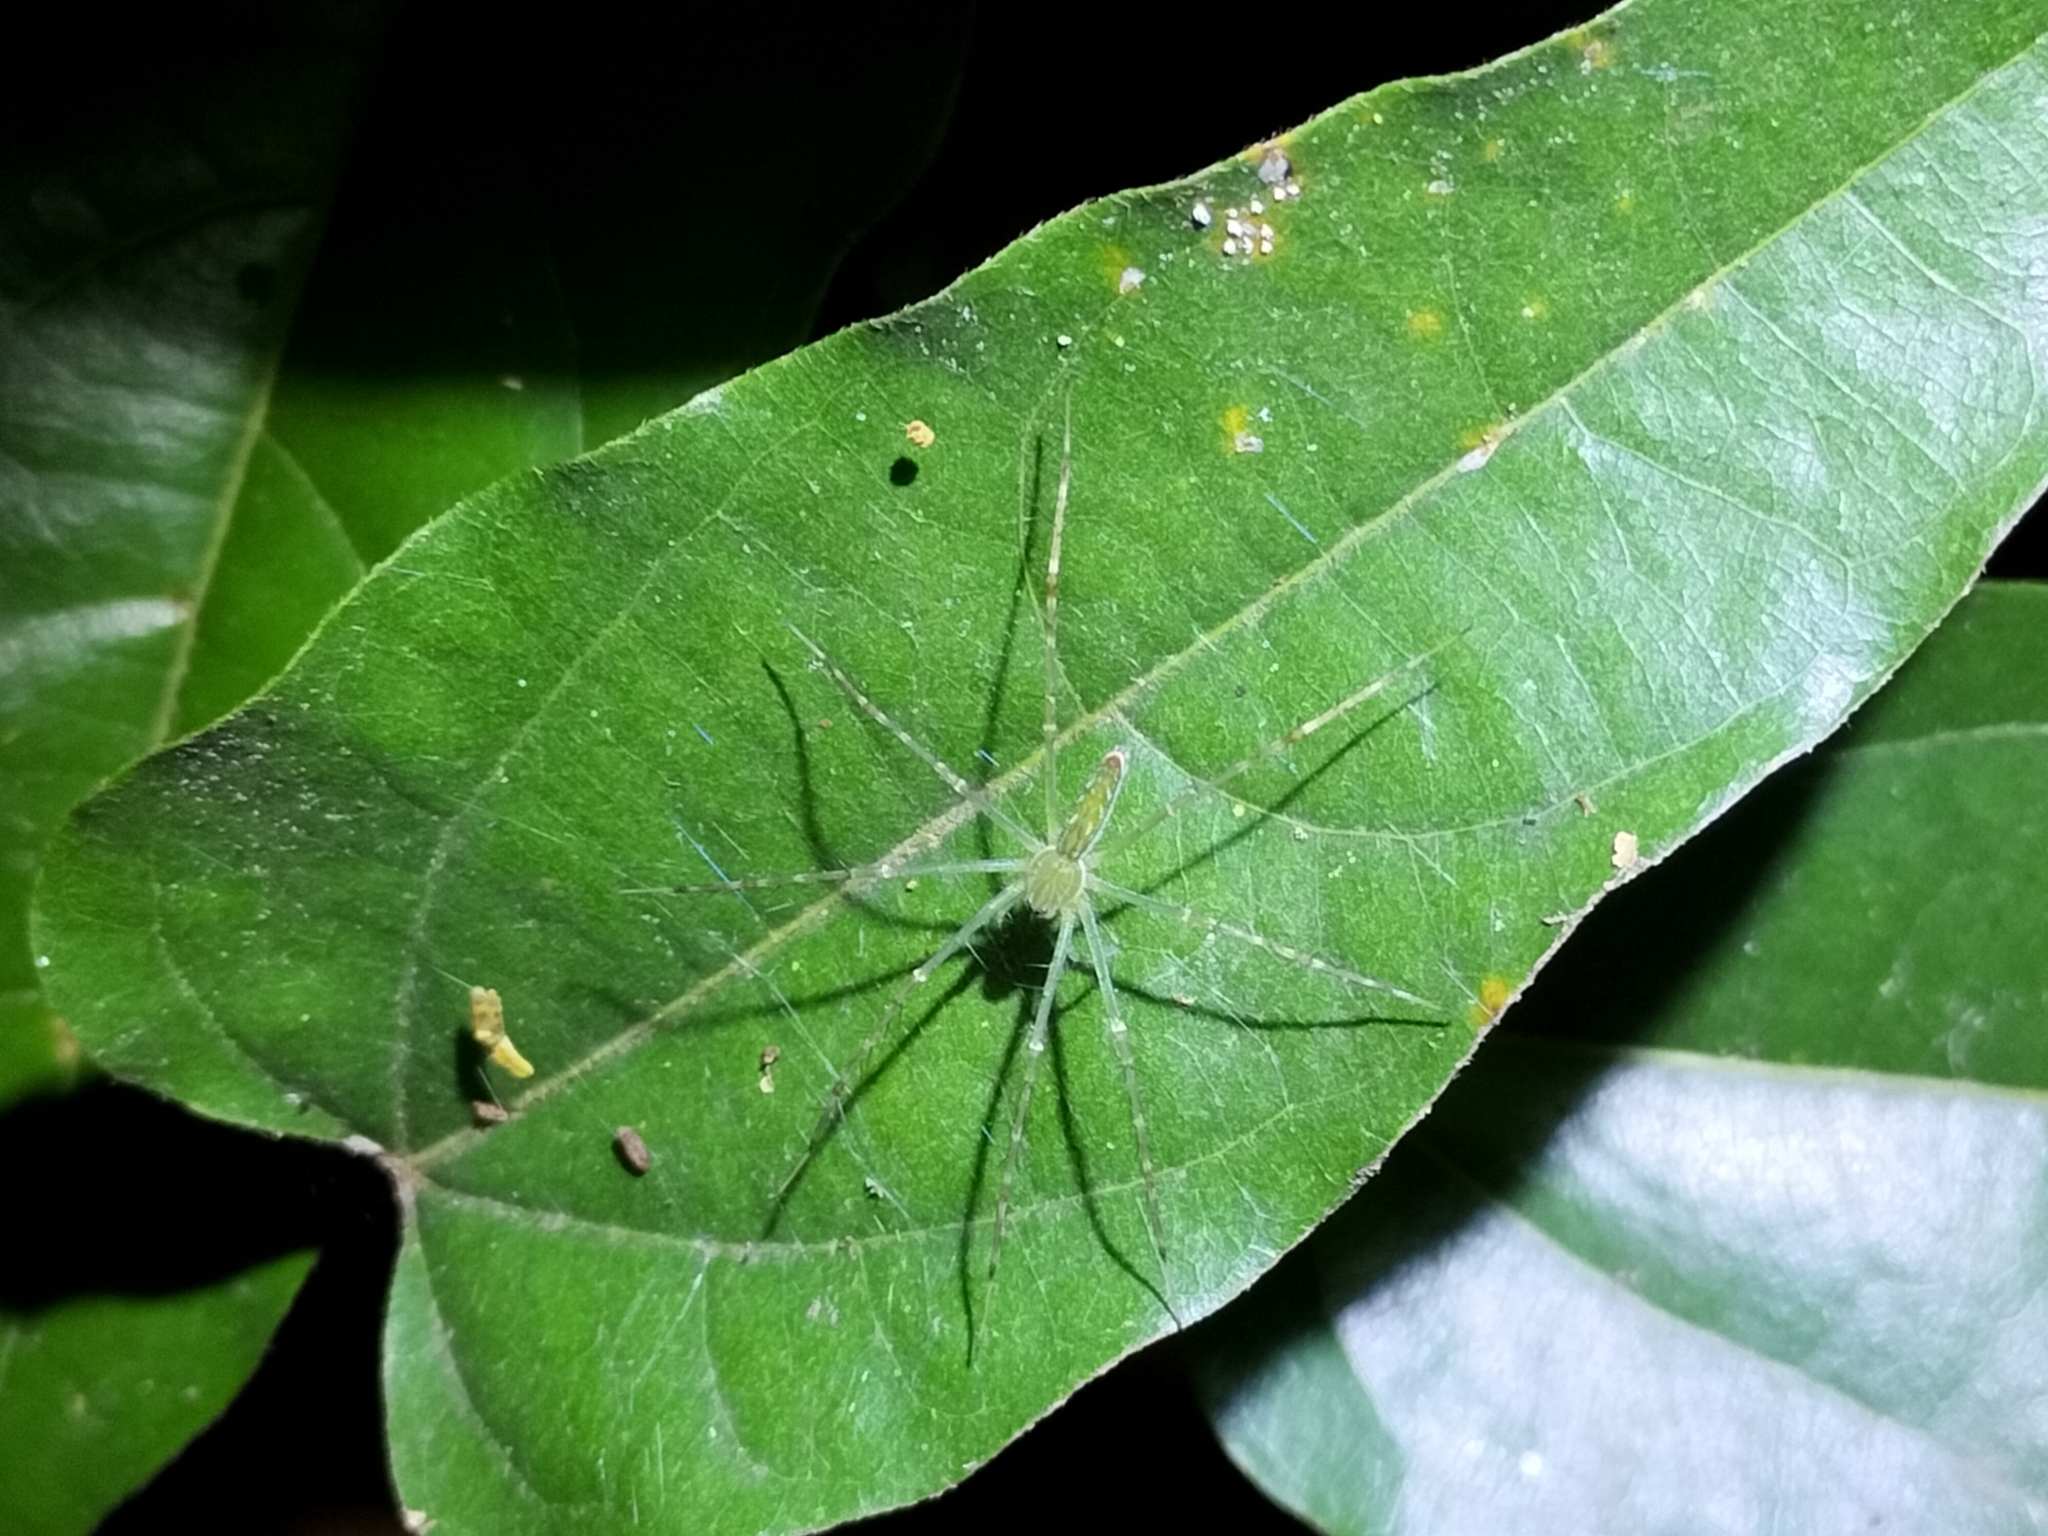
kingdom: Animalia
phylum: Arthropoda
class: Arachnida
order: Araneae
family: Pisauridae
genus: Hygropoda
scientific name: Hygropoda lineata
